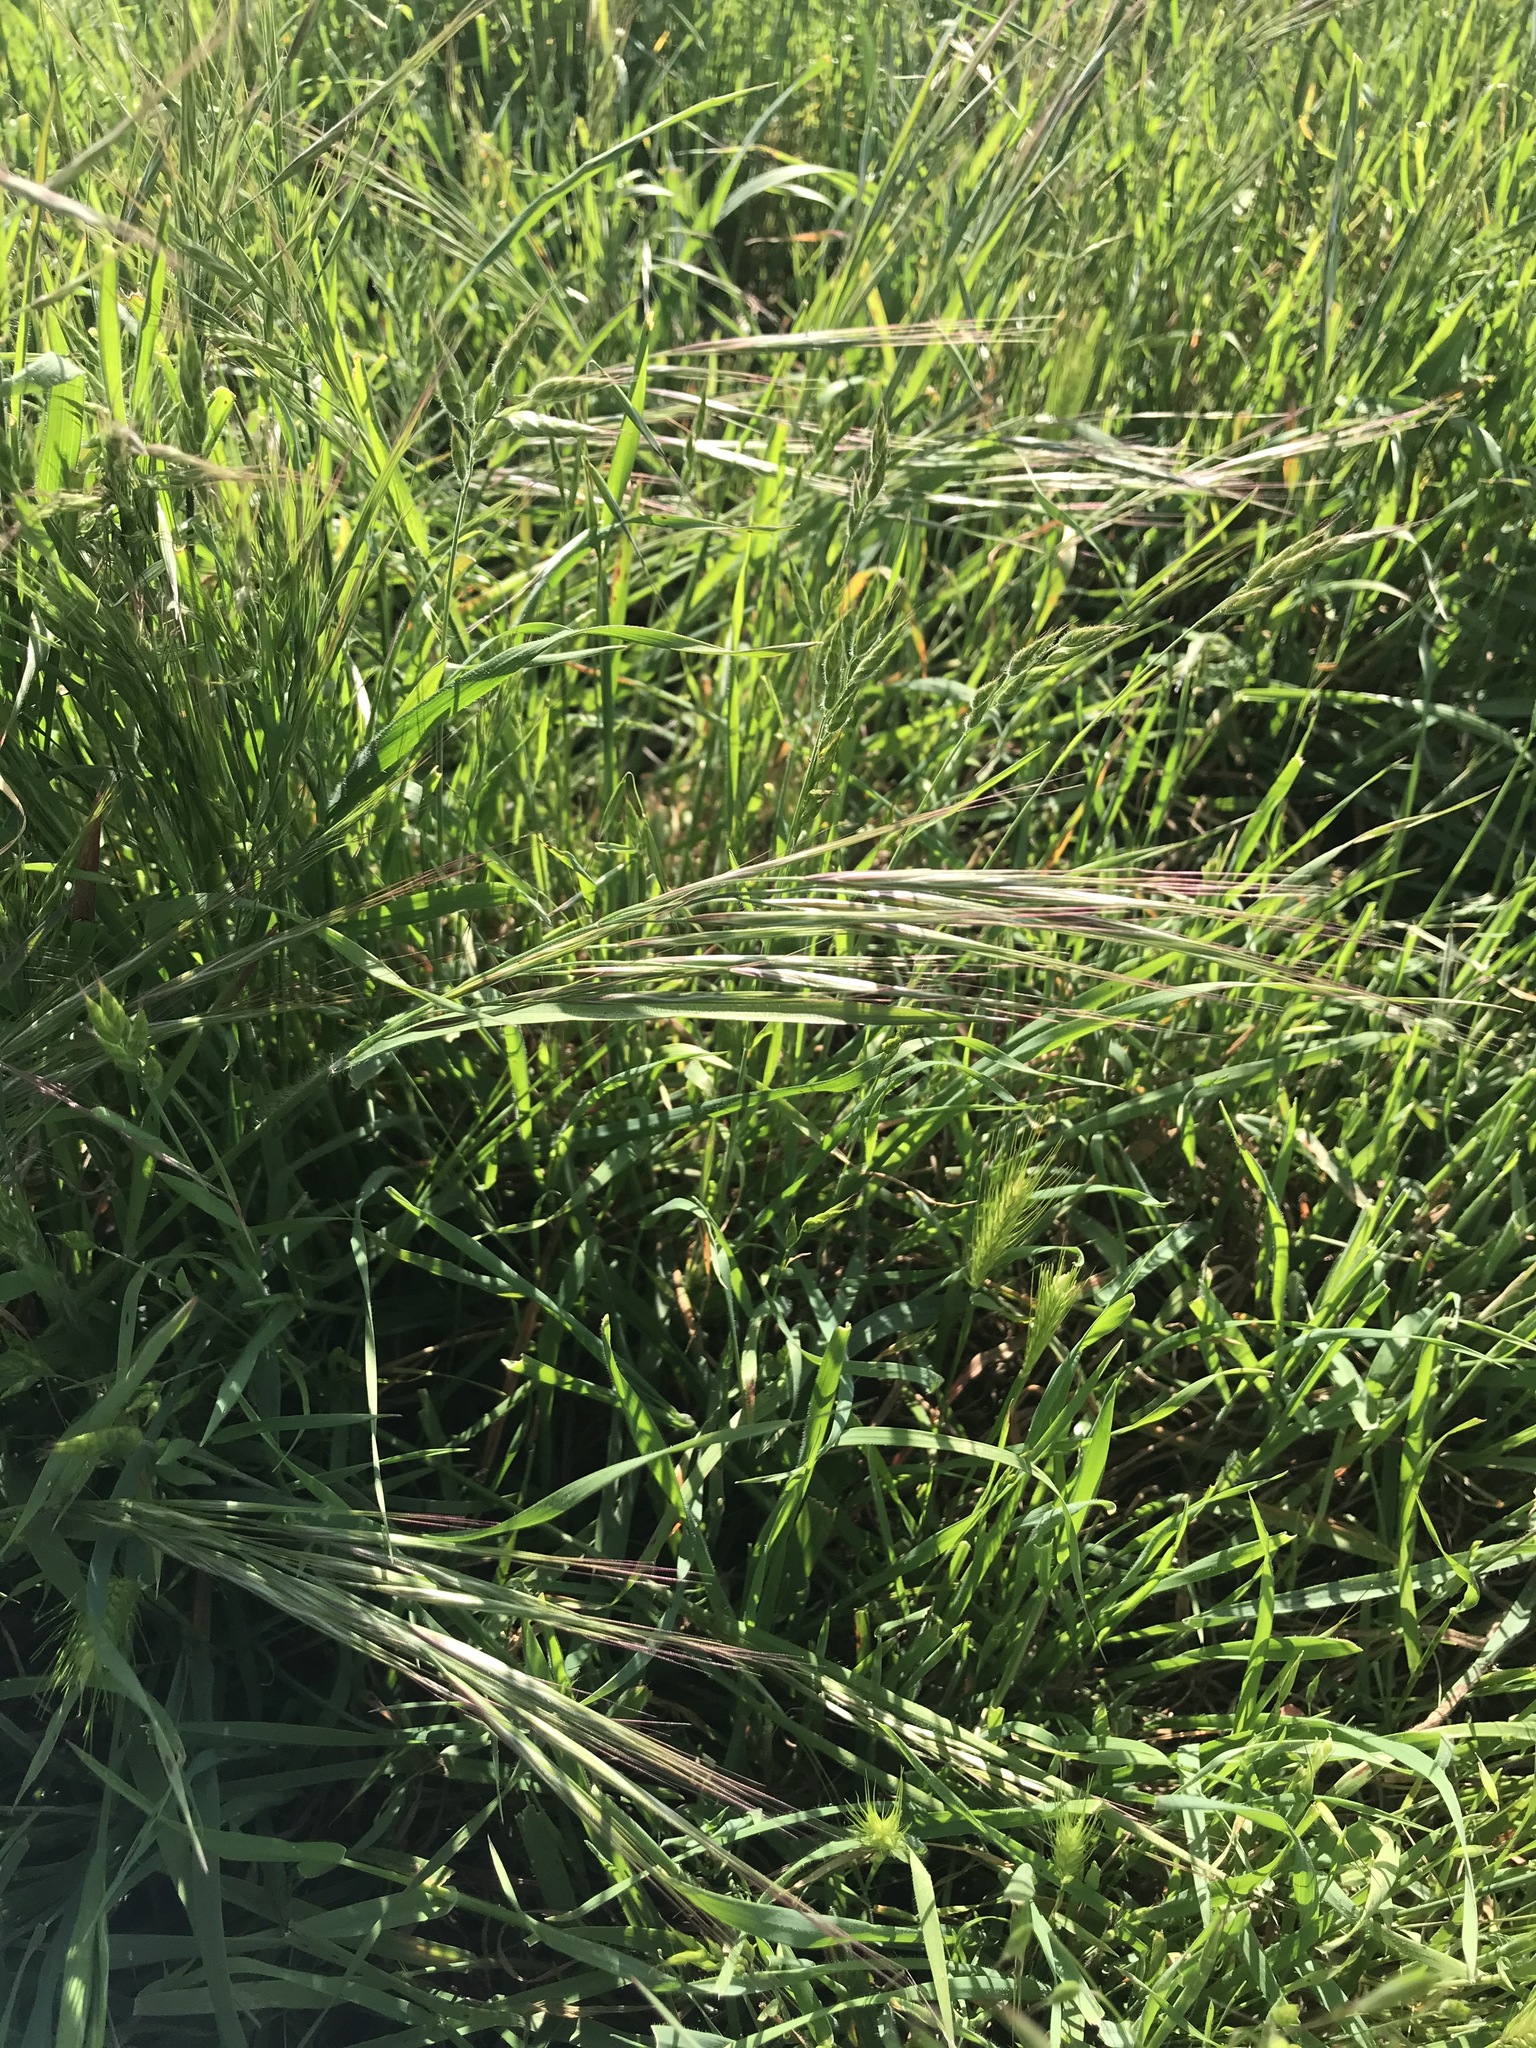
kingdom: Plantae
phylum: Tracheophyta
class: Liliopsida
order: Poales
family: Poaceae
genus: Bromus
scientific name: Bromus diandrus
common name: Ripgut brome
